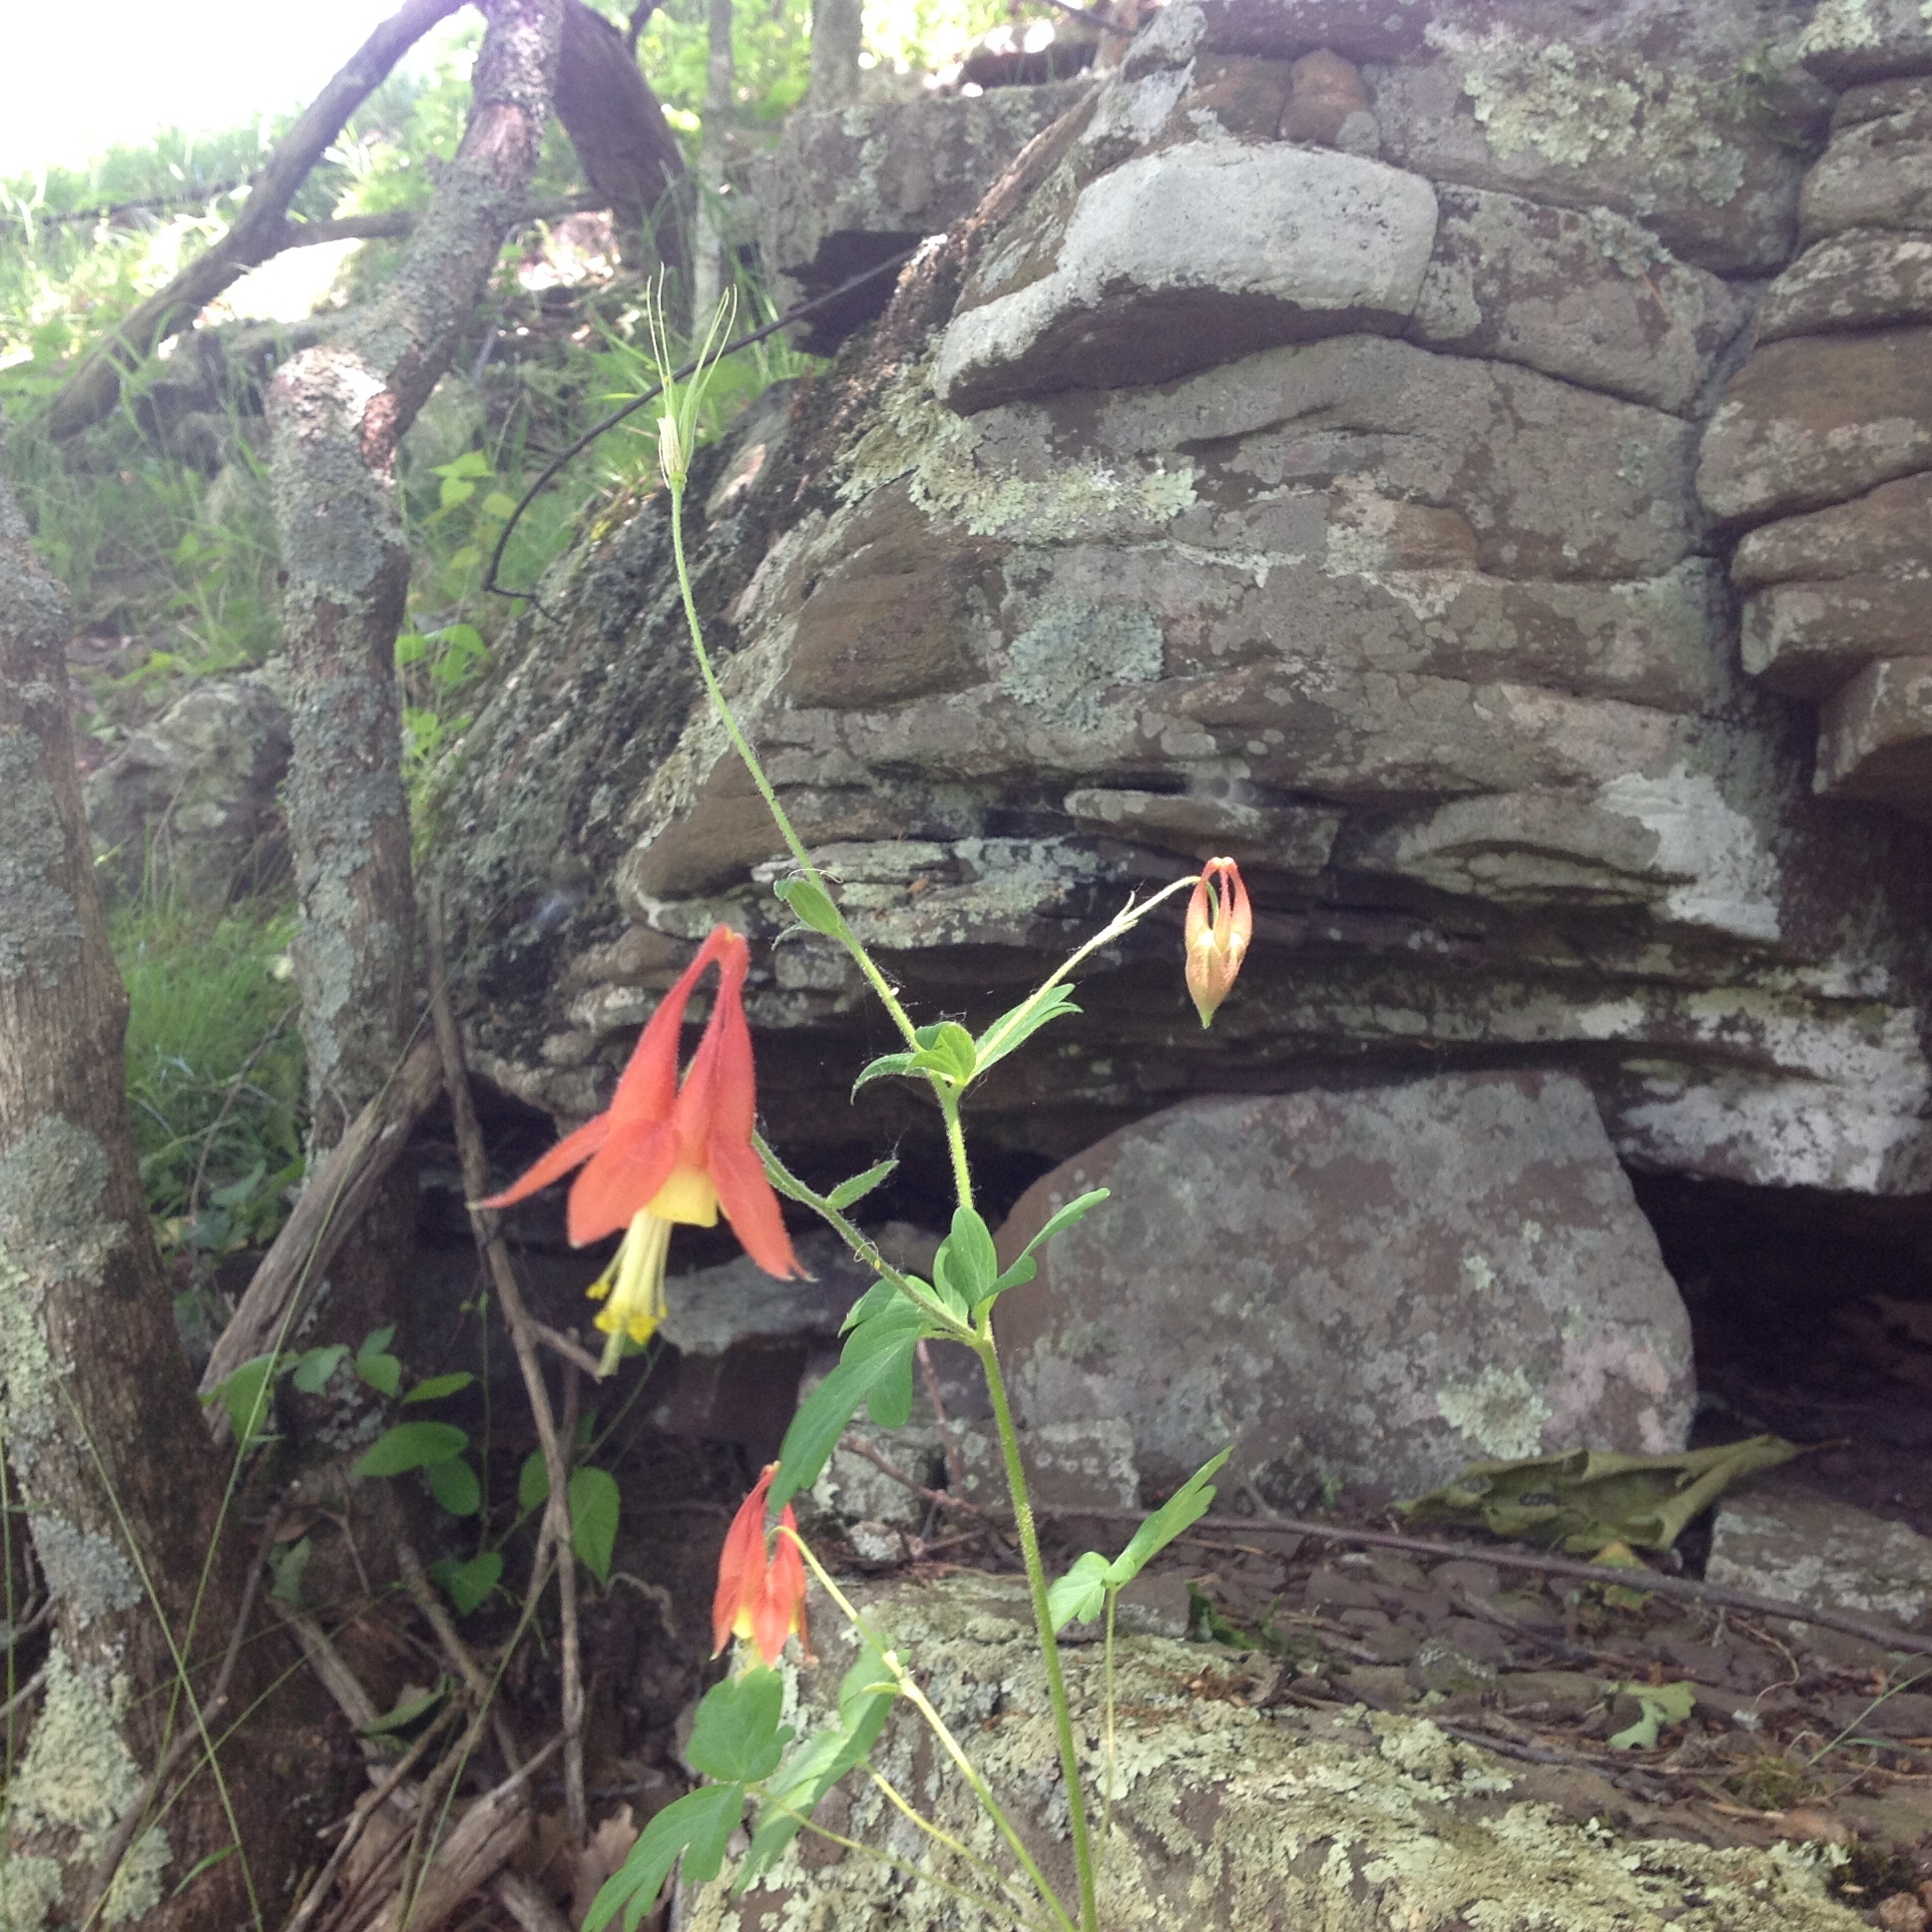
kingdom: Plantae
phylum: Tracheophyta
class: Magnoliopsida
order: Ranunculales
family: Ranunculaceae
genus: Aquilegia
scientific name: Aquilegia canadensis
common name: American columbine
